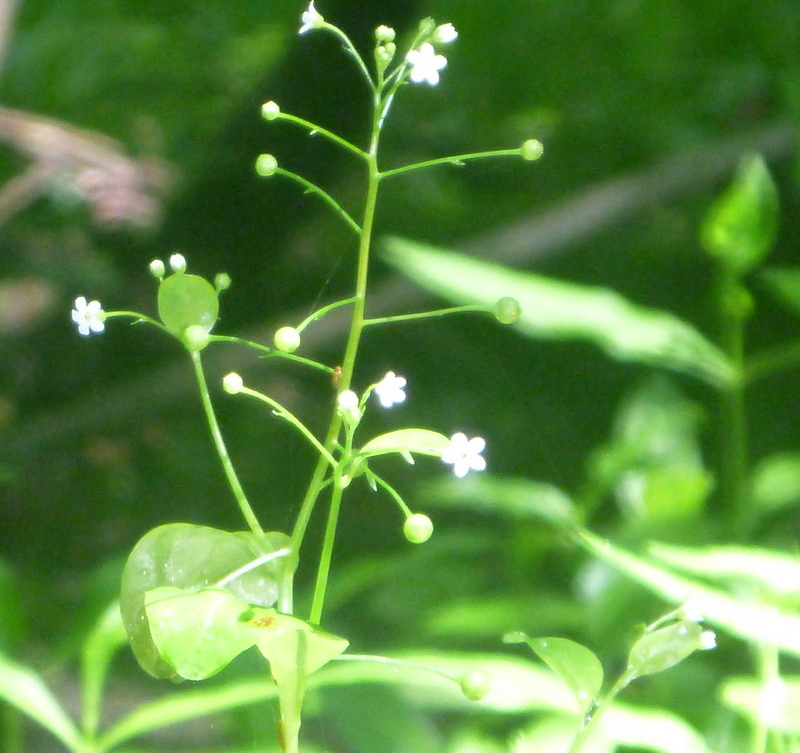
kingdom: Plantae
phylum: Tracheophyta
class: Magnoliopsida
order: Ericales
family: Primulaceae
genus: Samolus
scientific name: Samolus parviflorus
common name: False water pimpernel
